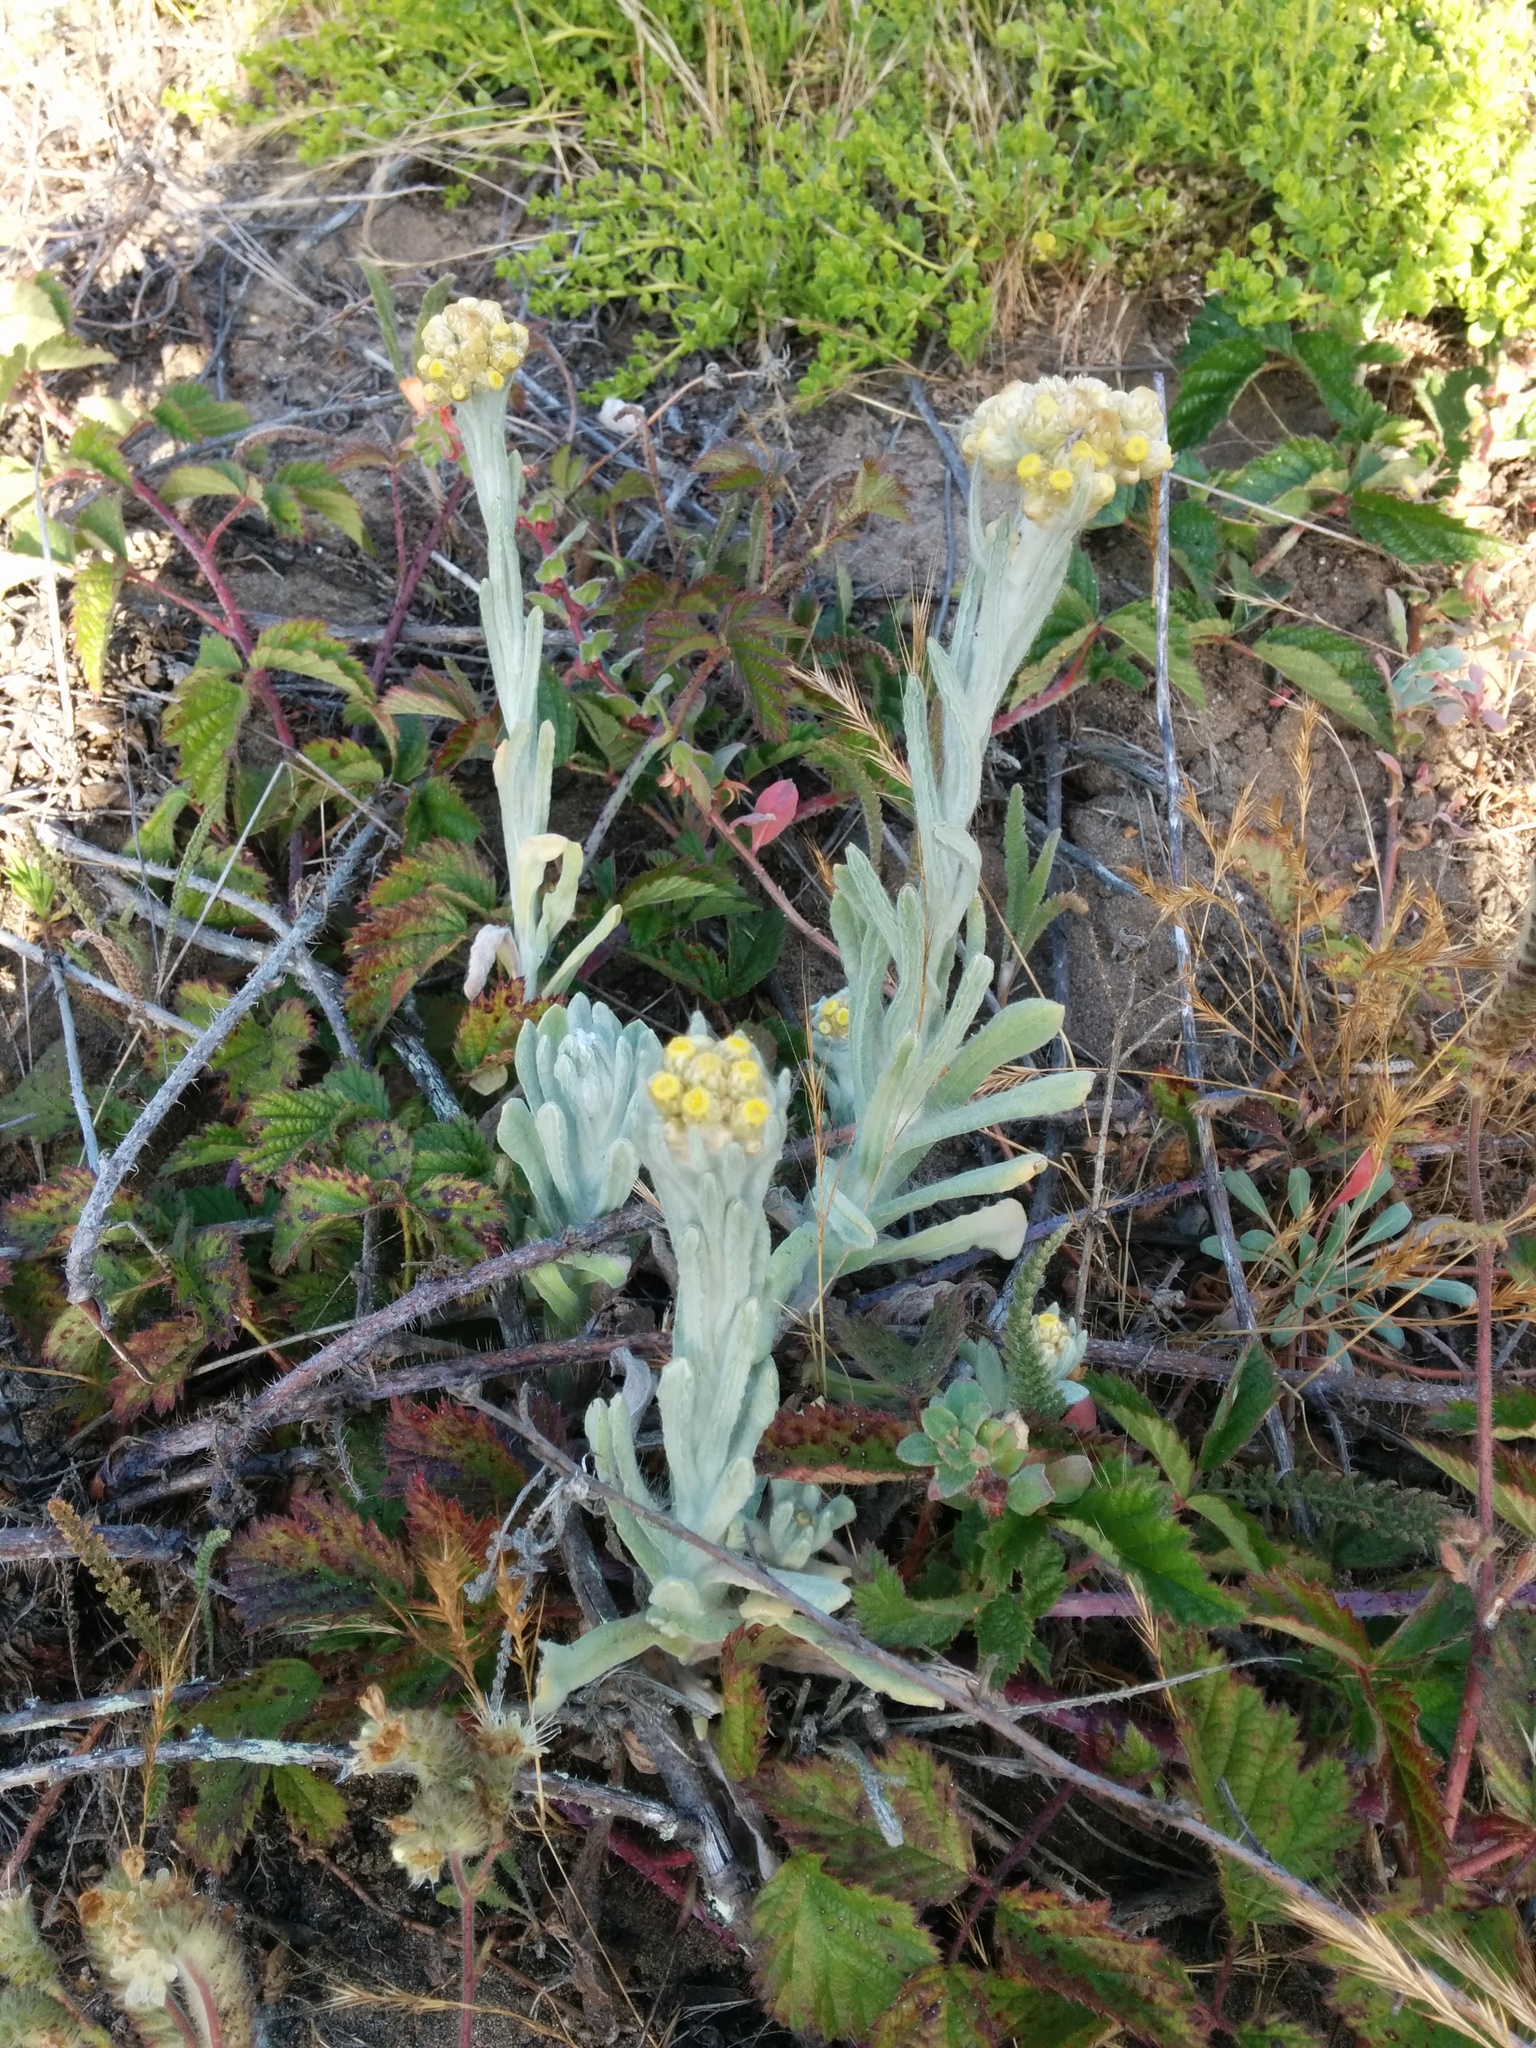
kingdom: Plantae
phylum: Tracheophyta
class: Magnoliopsida
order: Asterales
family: Asteraceae
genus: Pseudognaphalium
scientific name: Pseudognaphalium stramineum
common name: Cotton-batting-plant
